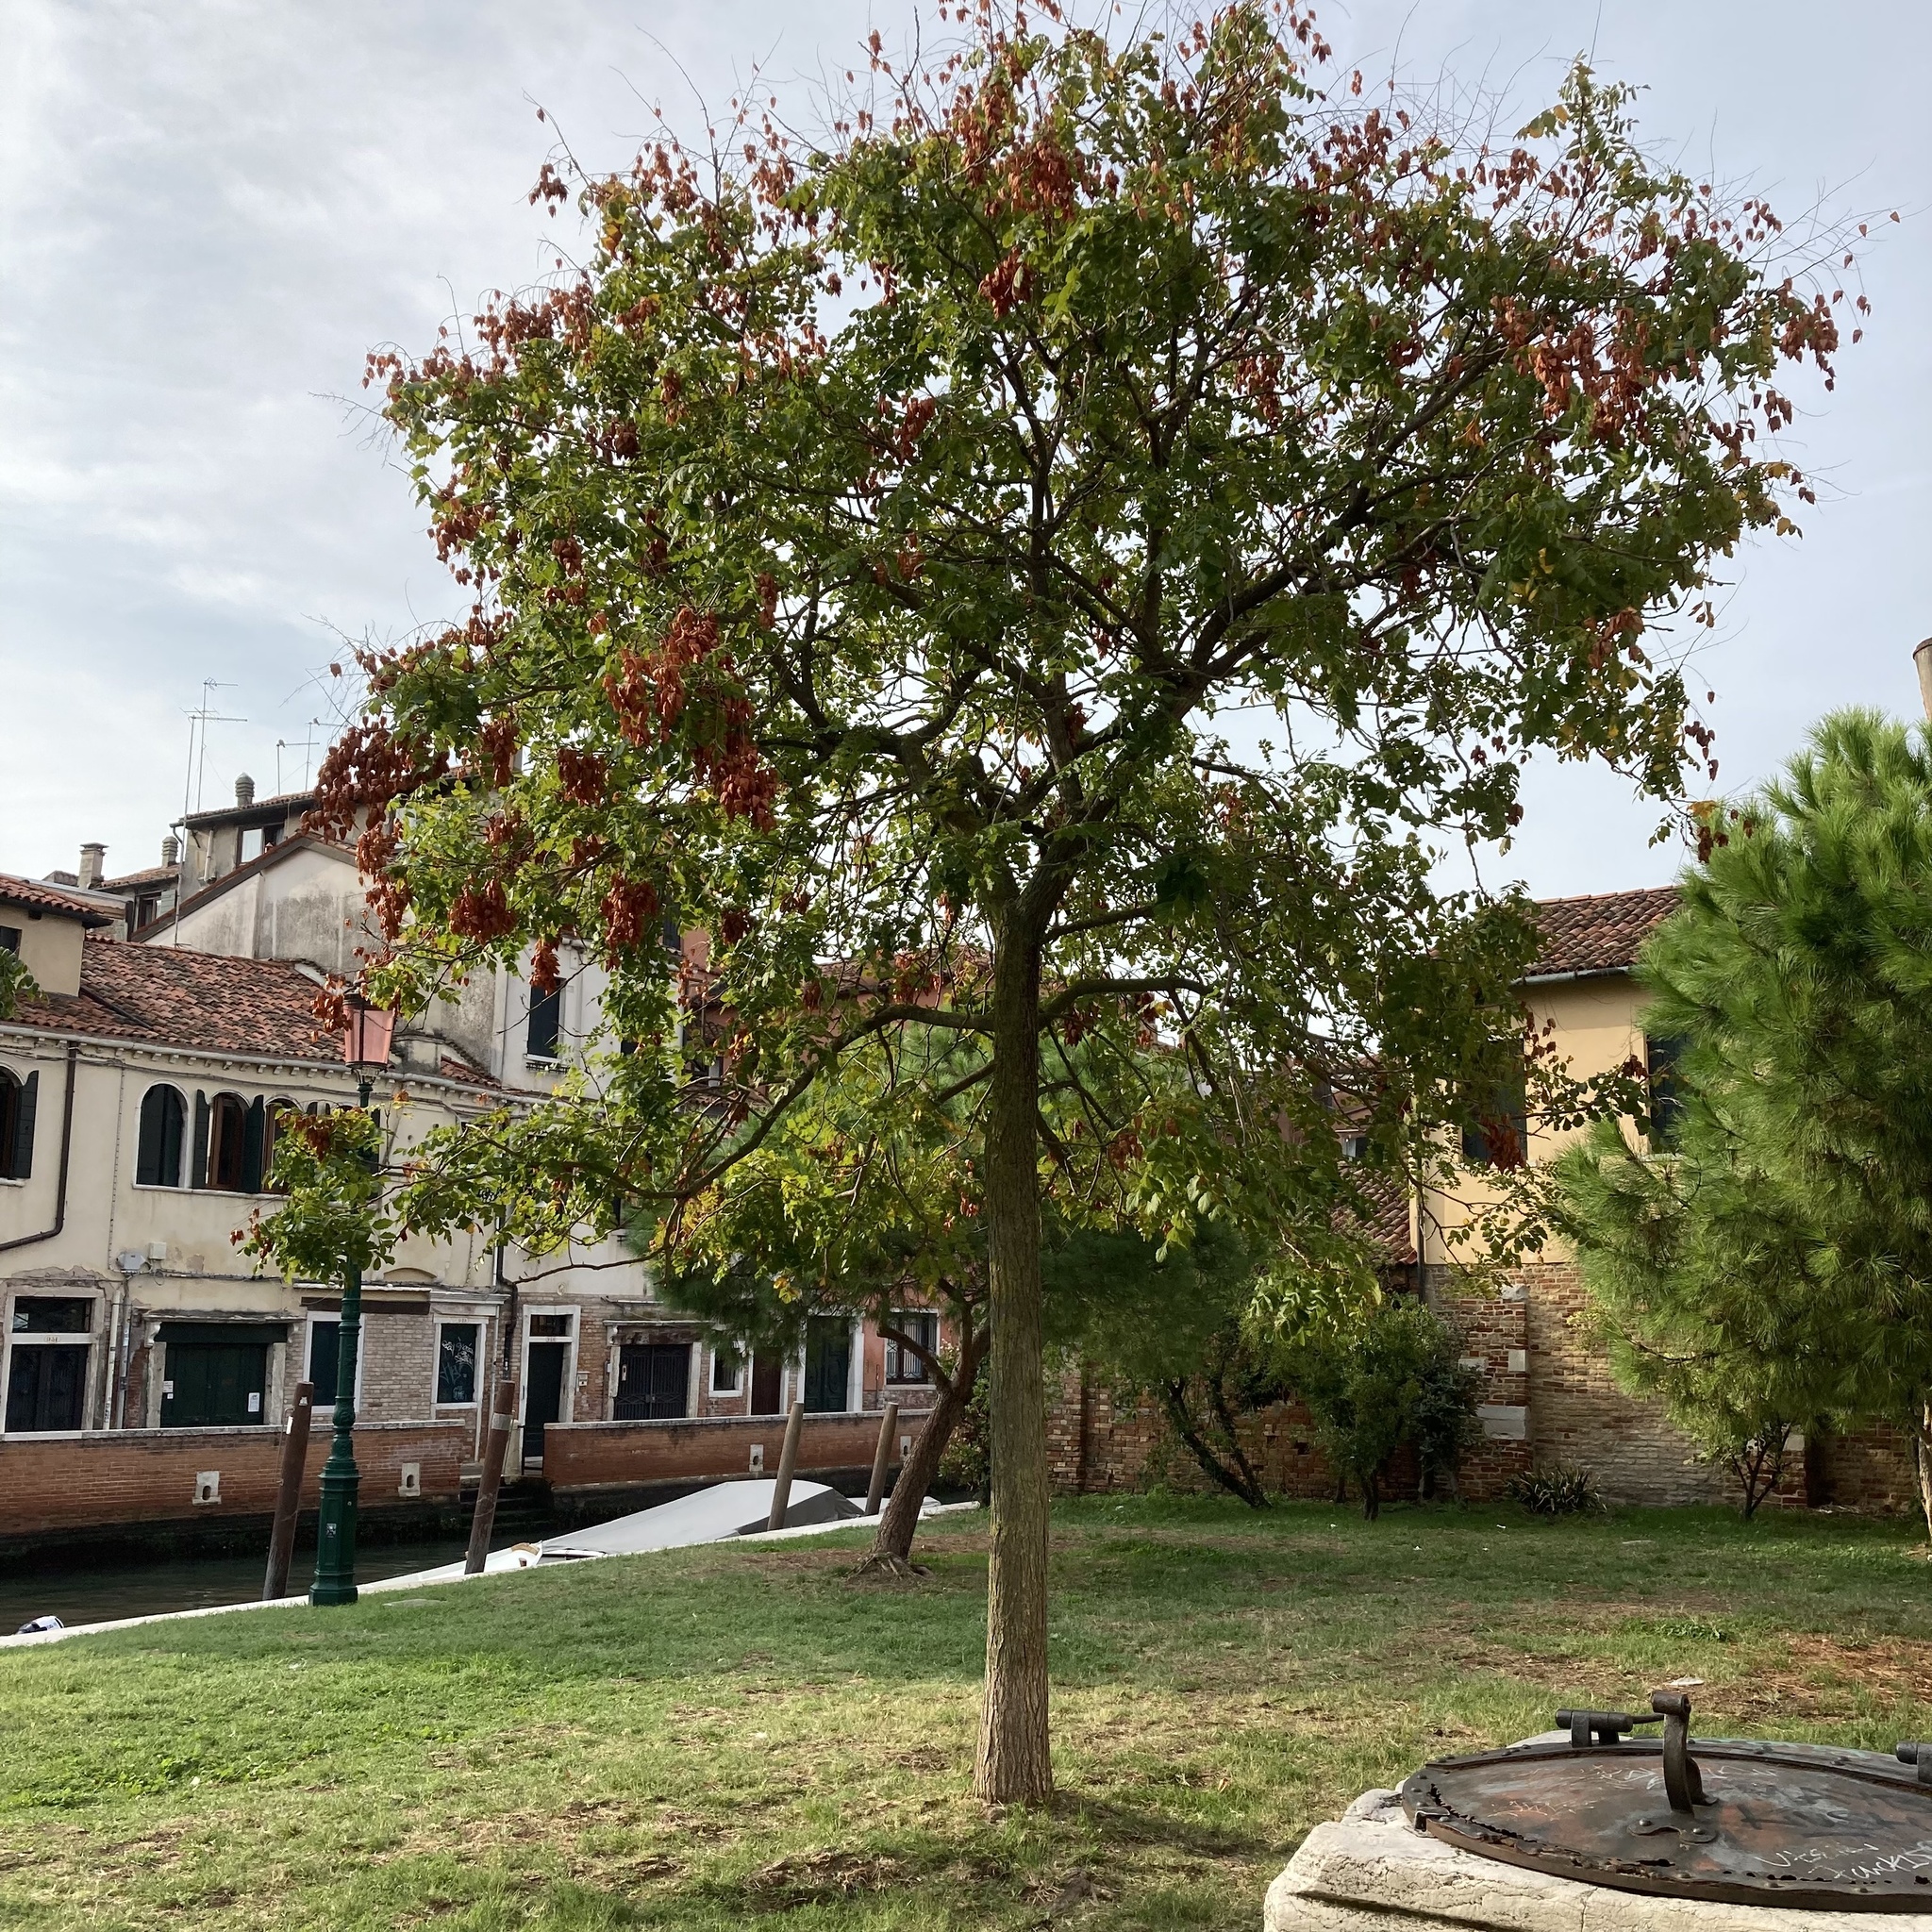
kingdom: Fungi
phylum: Ascomycota
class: Lecanoromycetes
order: Teloschistales
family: Teloschistaceae
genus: Xanthoria
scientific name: Xanthoria parietina
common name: Common orange lichen
